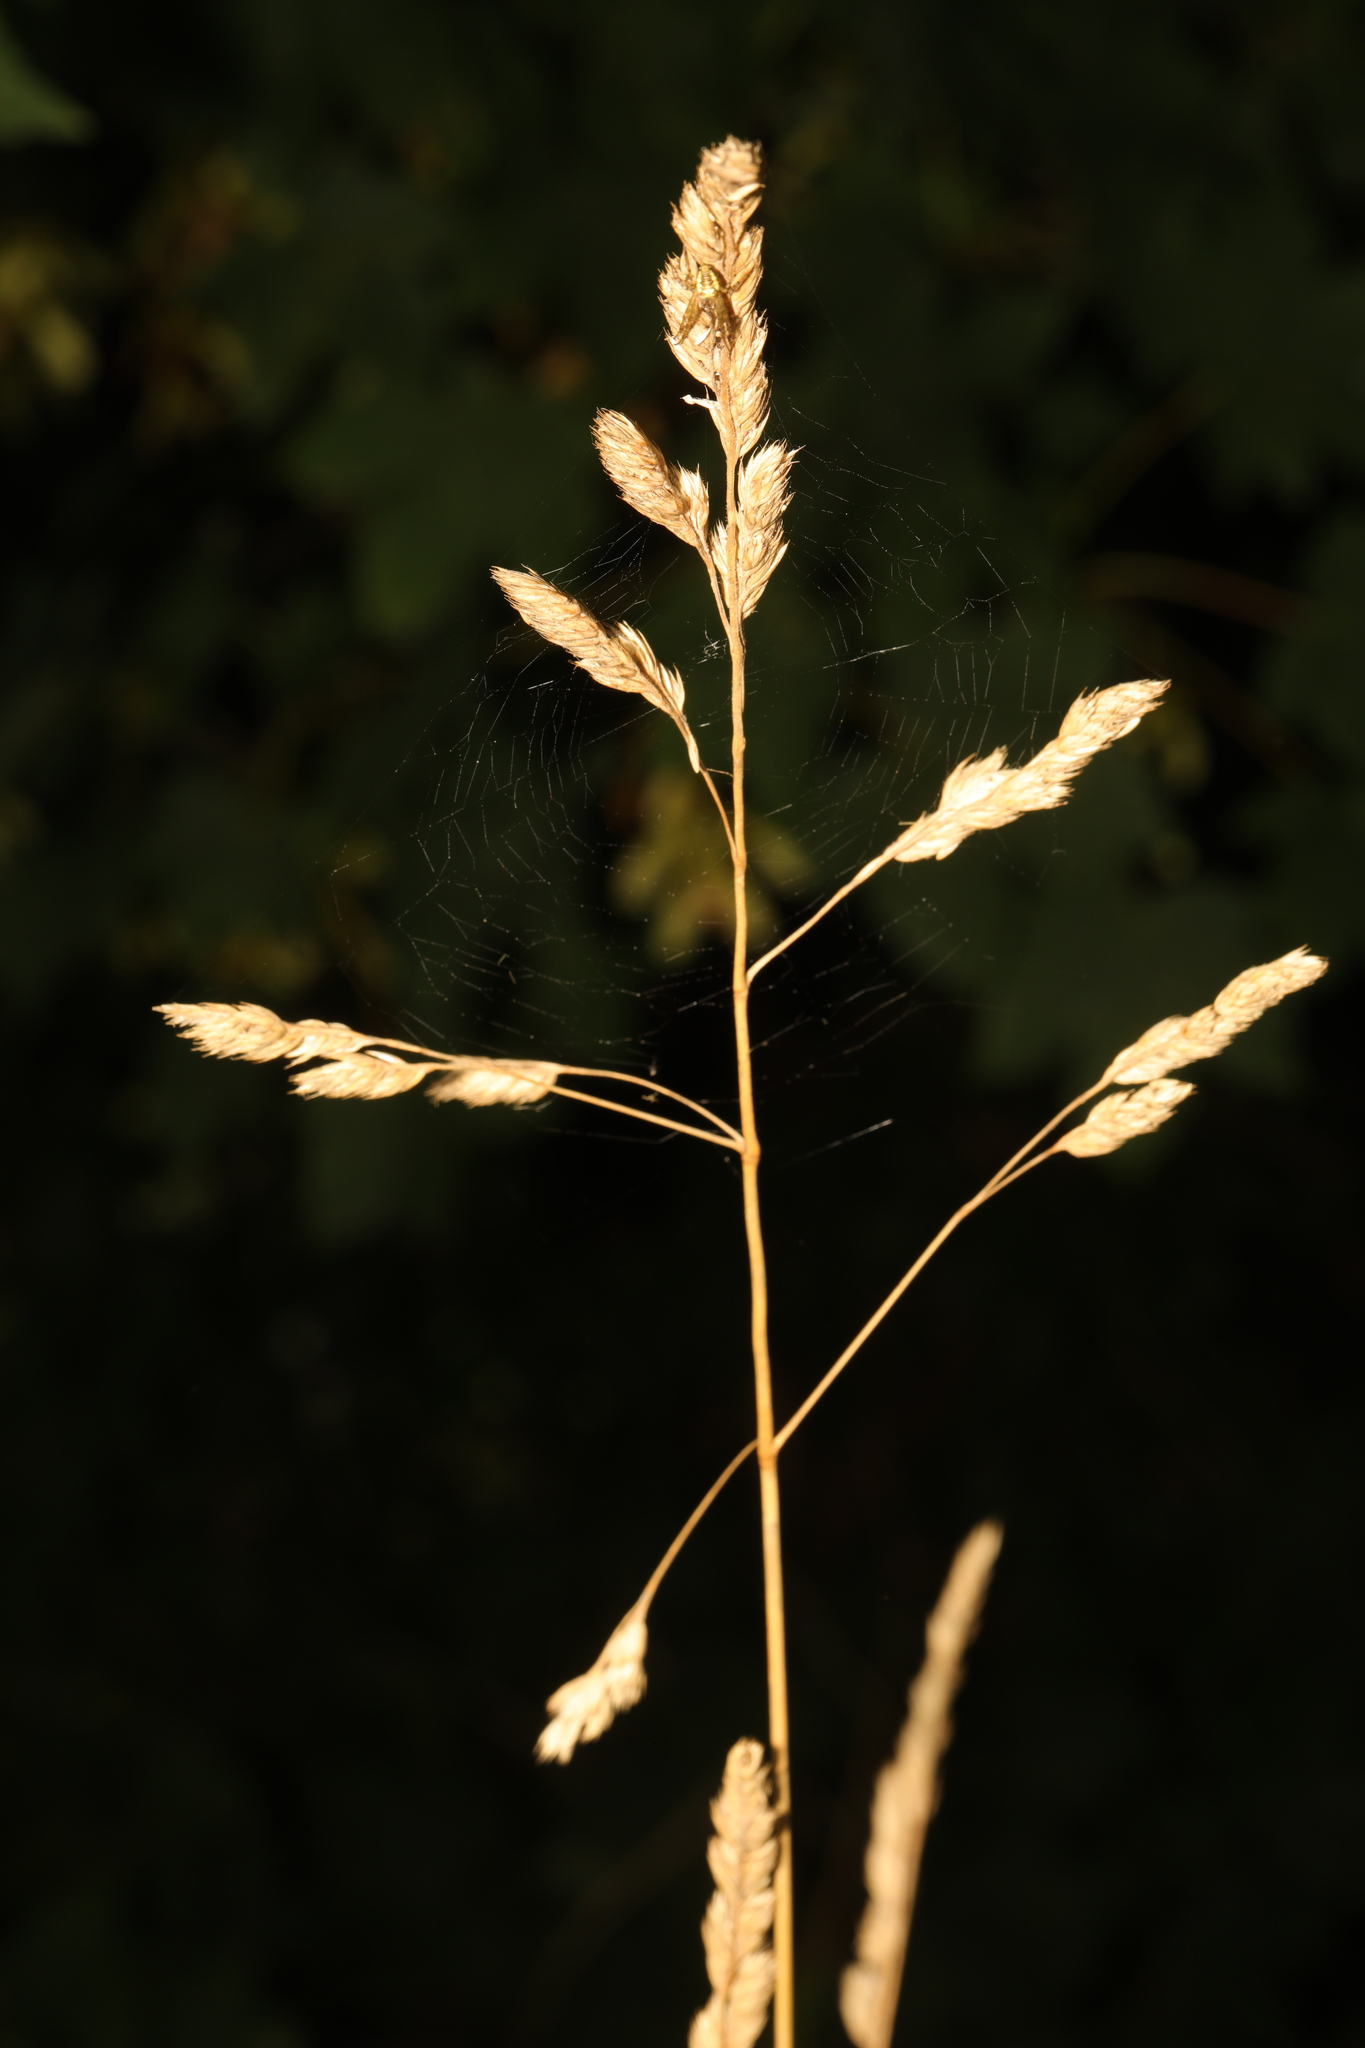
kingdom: Plantae
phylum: Tracheophyta
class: Liliopsida
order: Poales
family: Poaceae
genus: Dactylis
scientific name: Dactylis glomerata
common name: Orchardgrass
